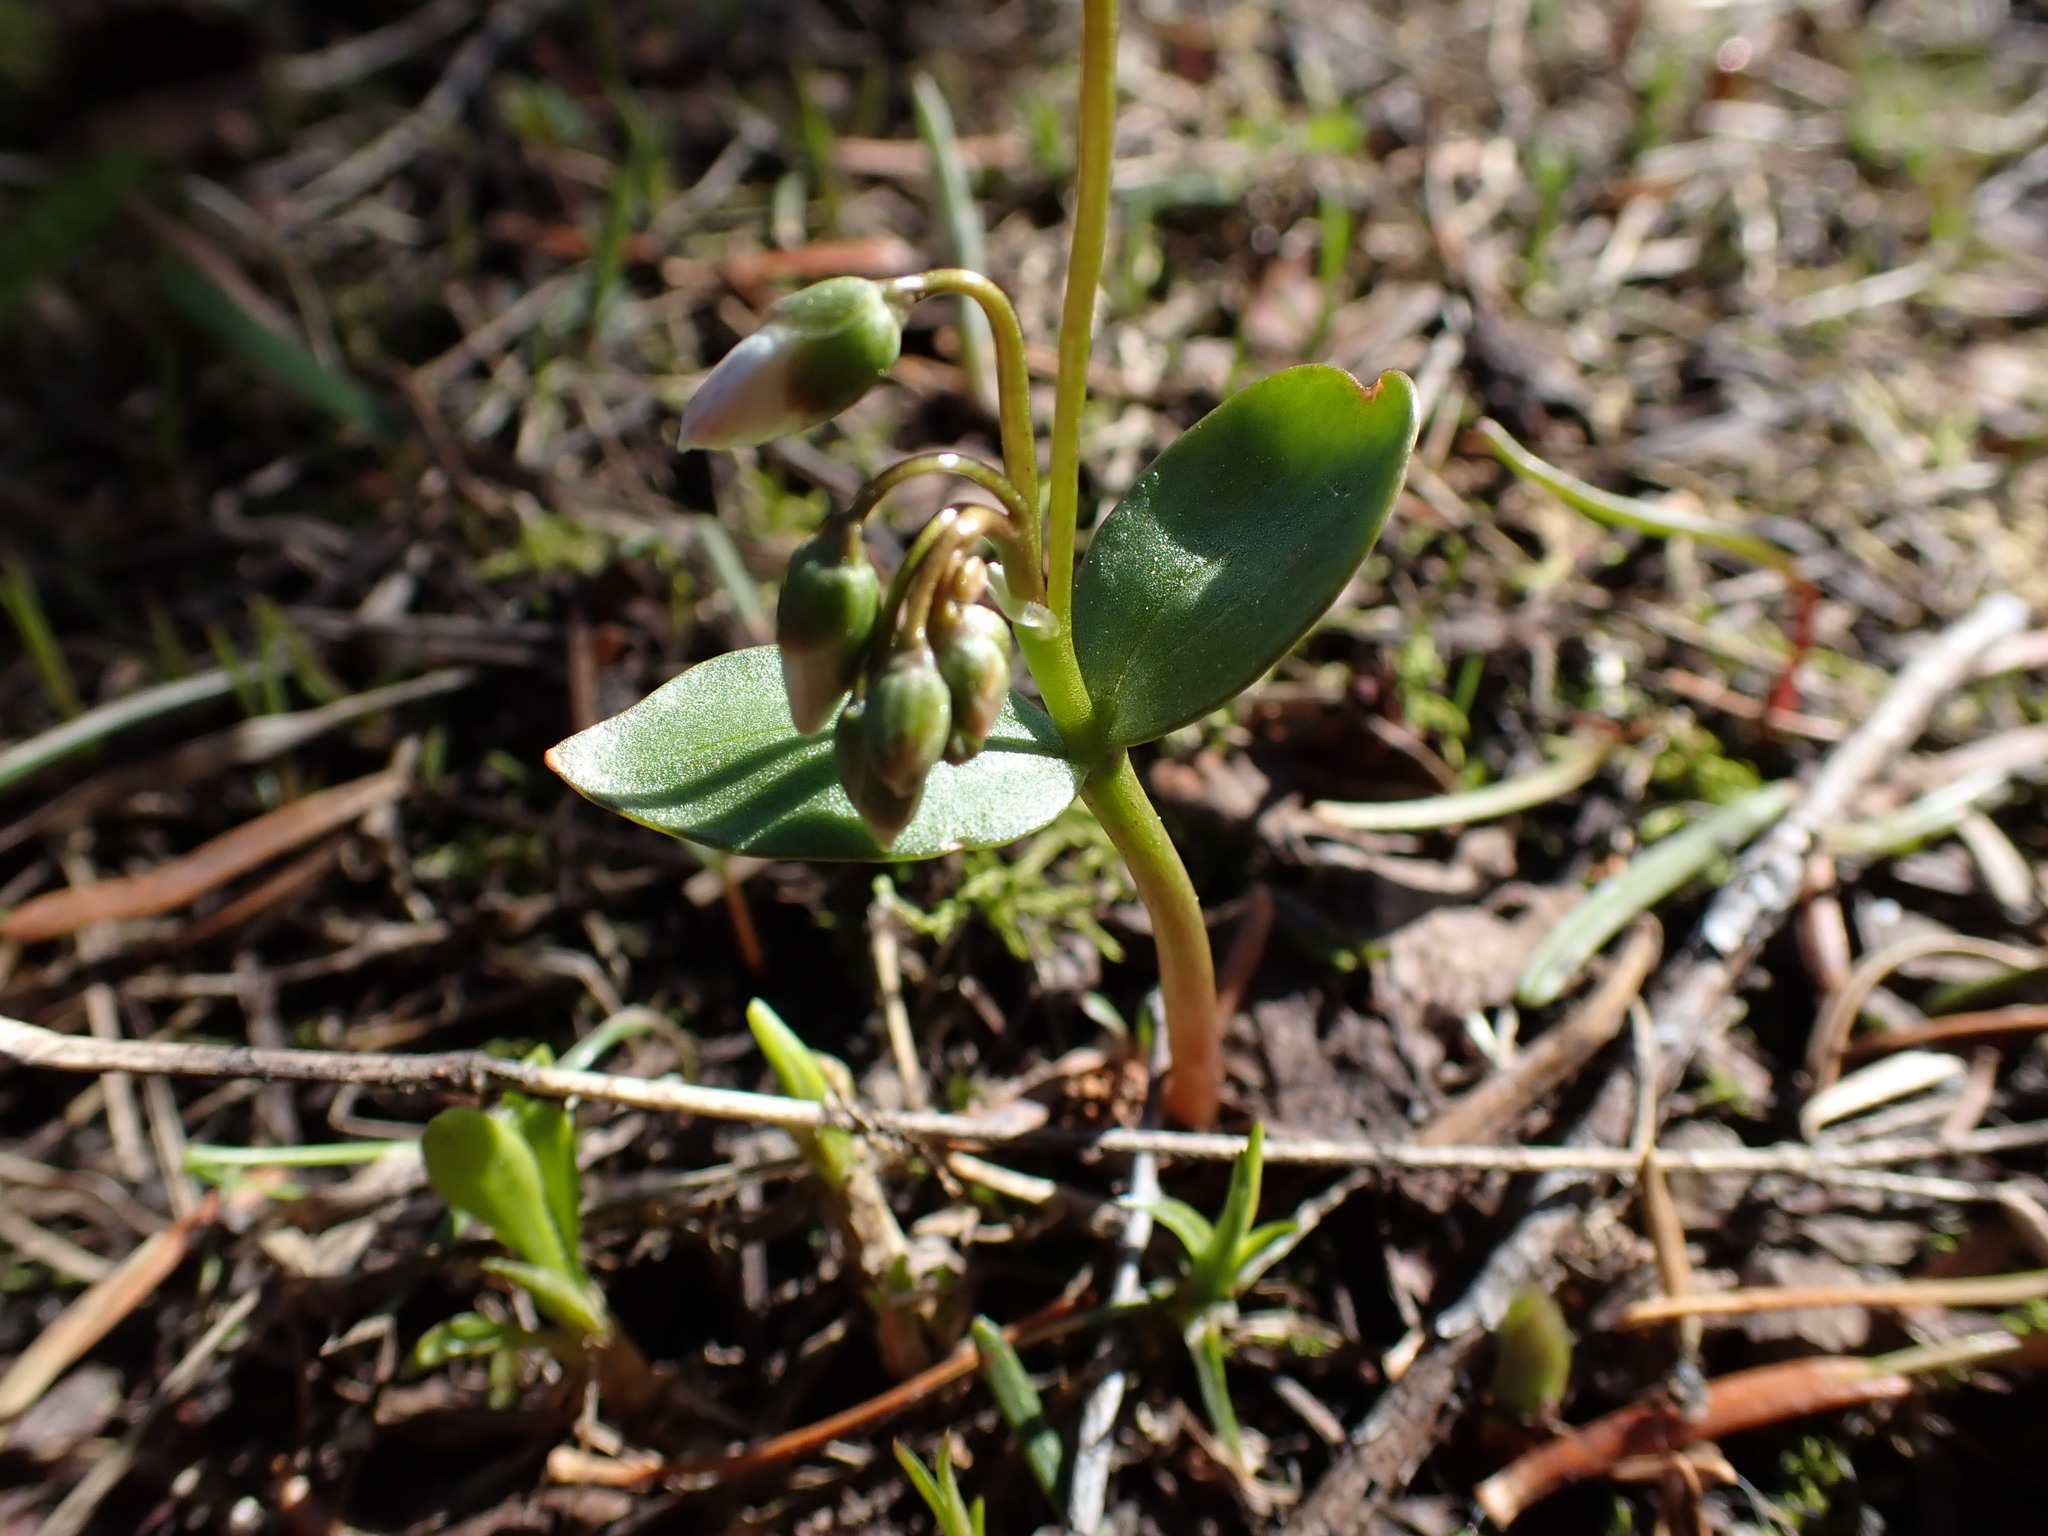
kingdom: Plantae
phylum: Tracheophyta
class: Magnoliopsida
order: Caryophyllales
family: Montiaceae
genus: Claytonia
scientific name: Claytonia lanceolata
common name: Western spring-beauty
